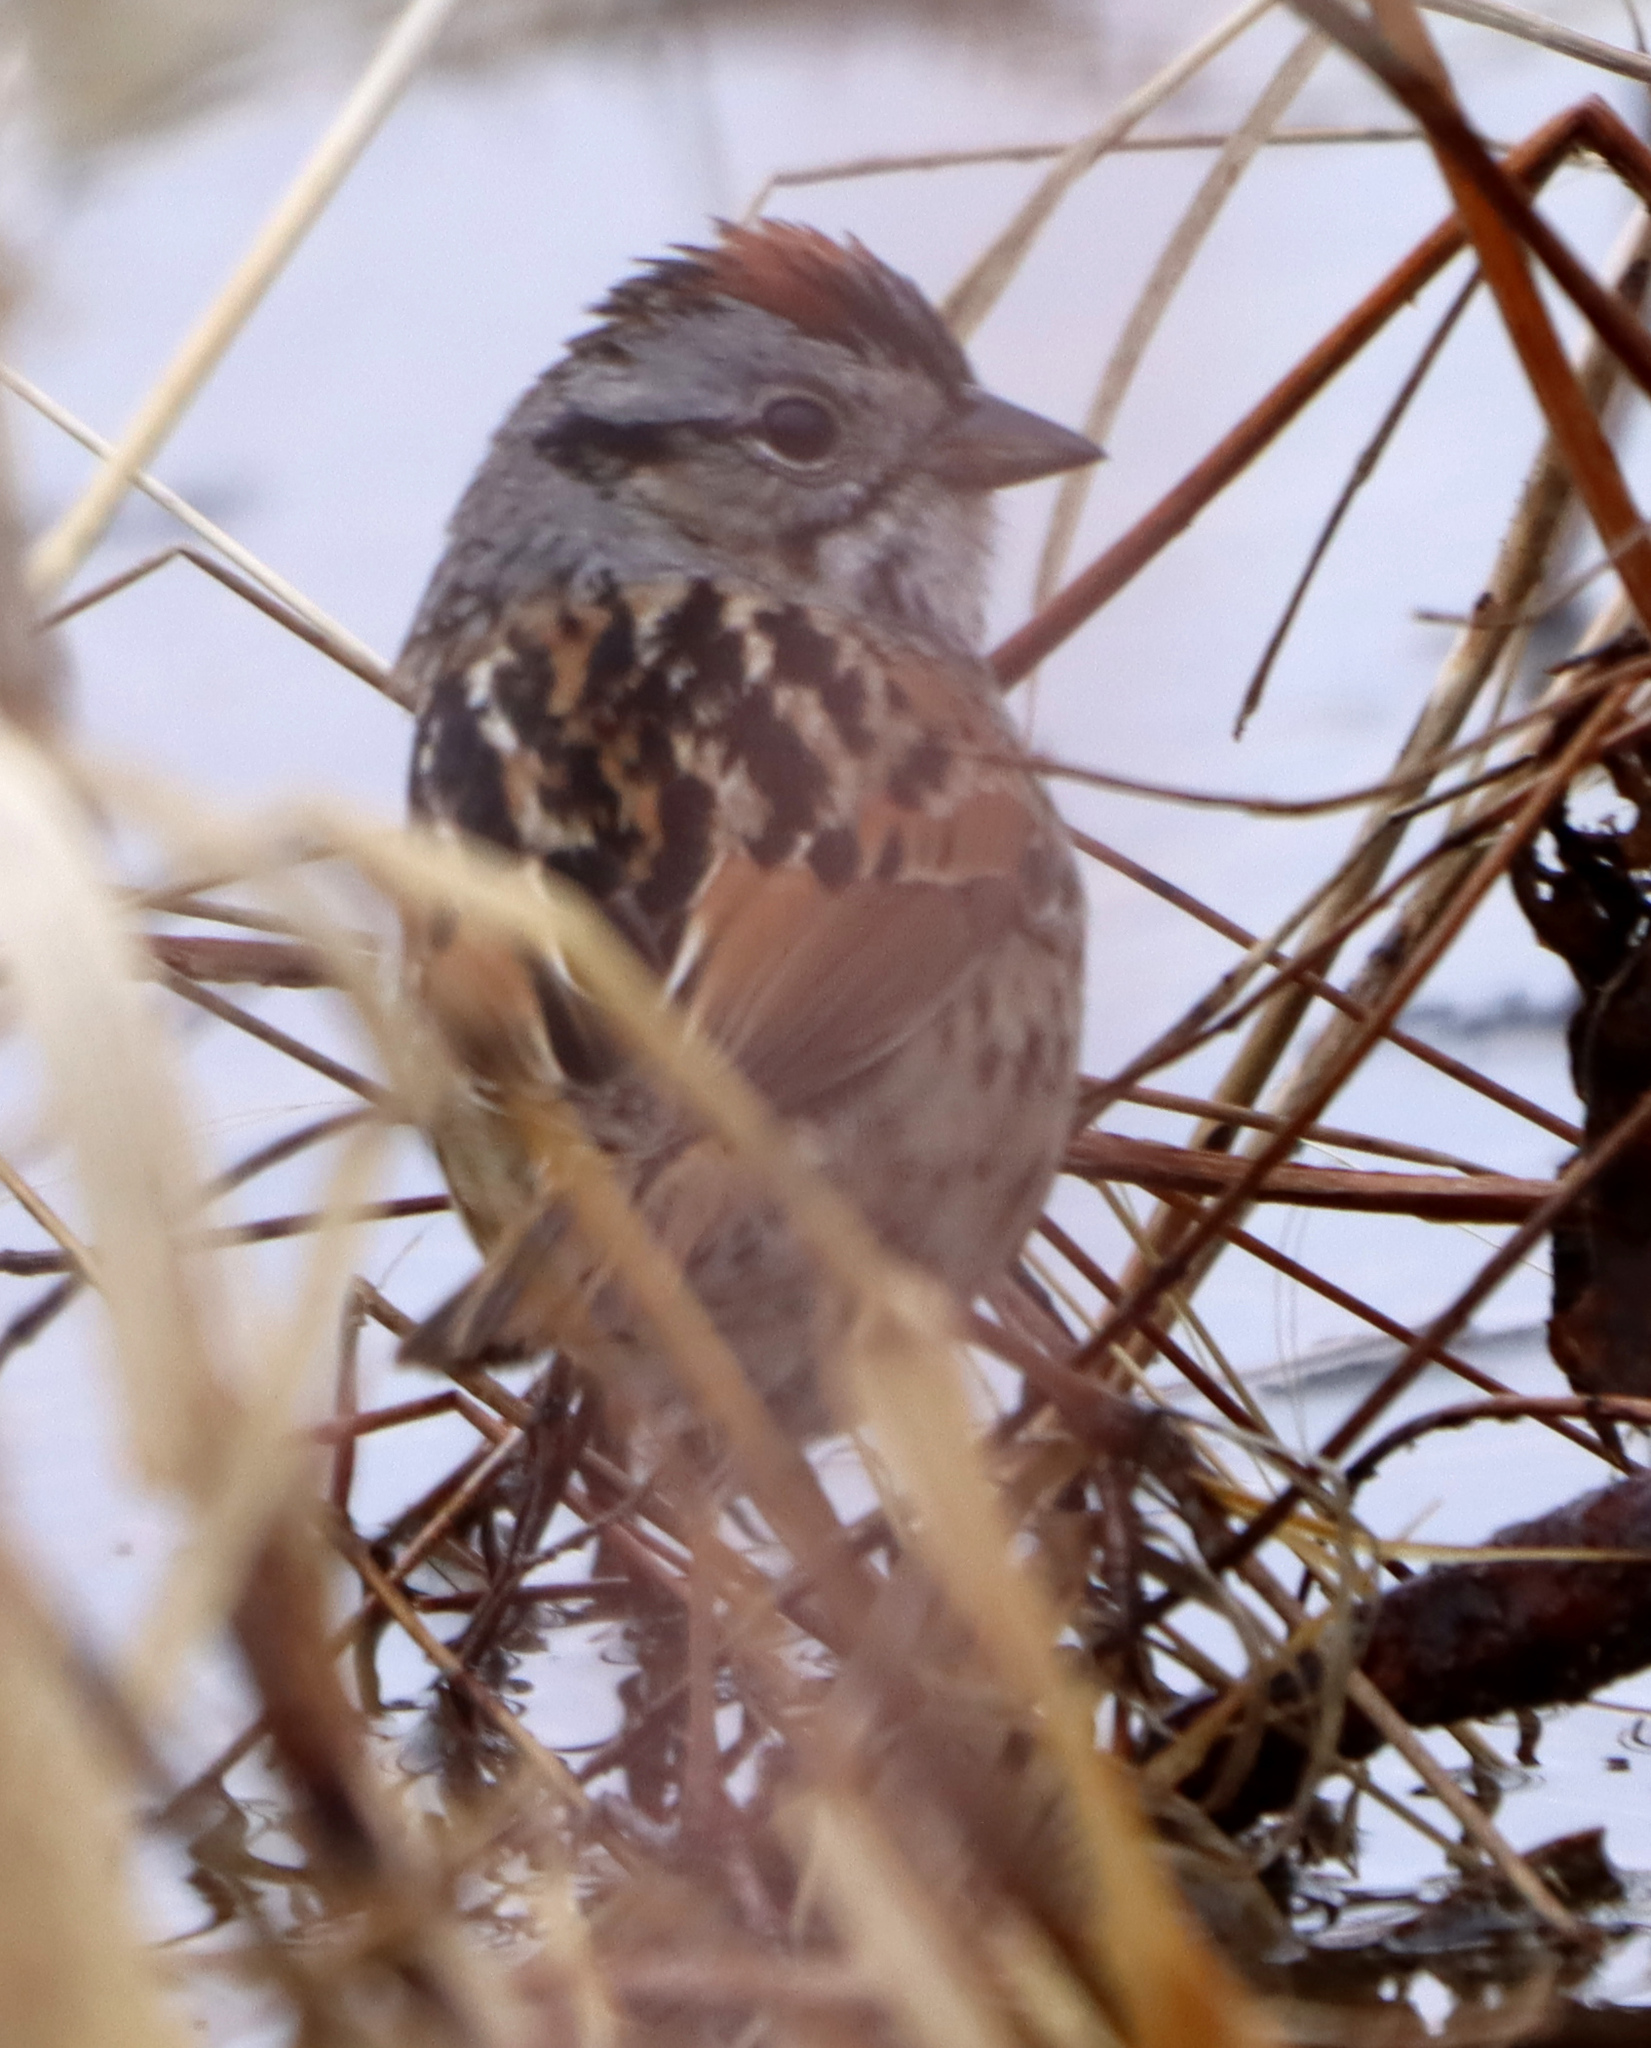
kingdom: Animalia
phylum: Chordata
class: Aves
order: Passeriformes
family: Passerellidae
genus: Melospiza
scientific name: Melospiza georgiana
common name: Swamp sparrow
